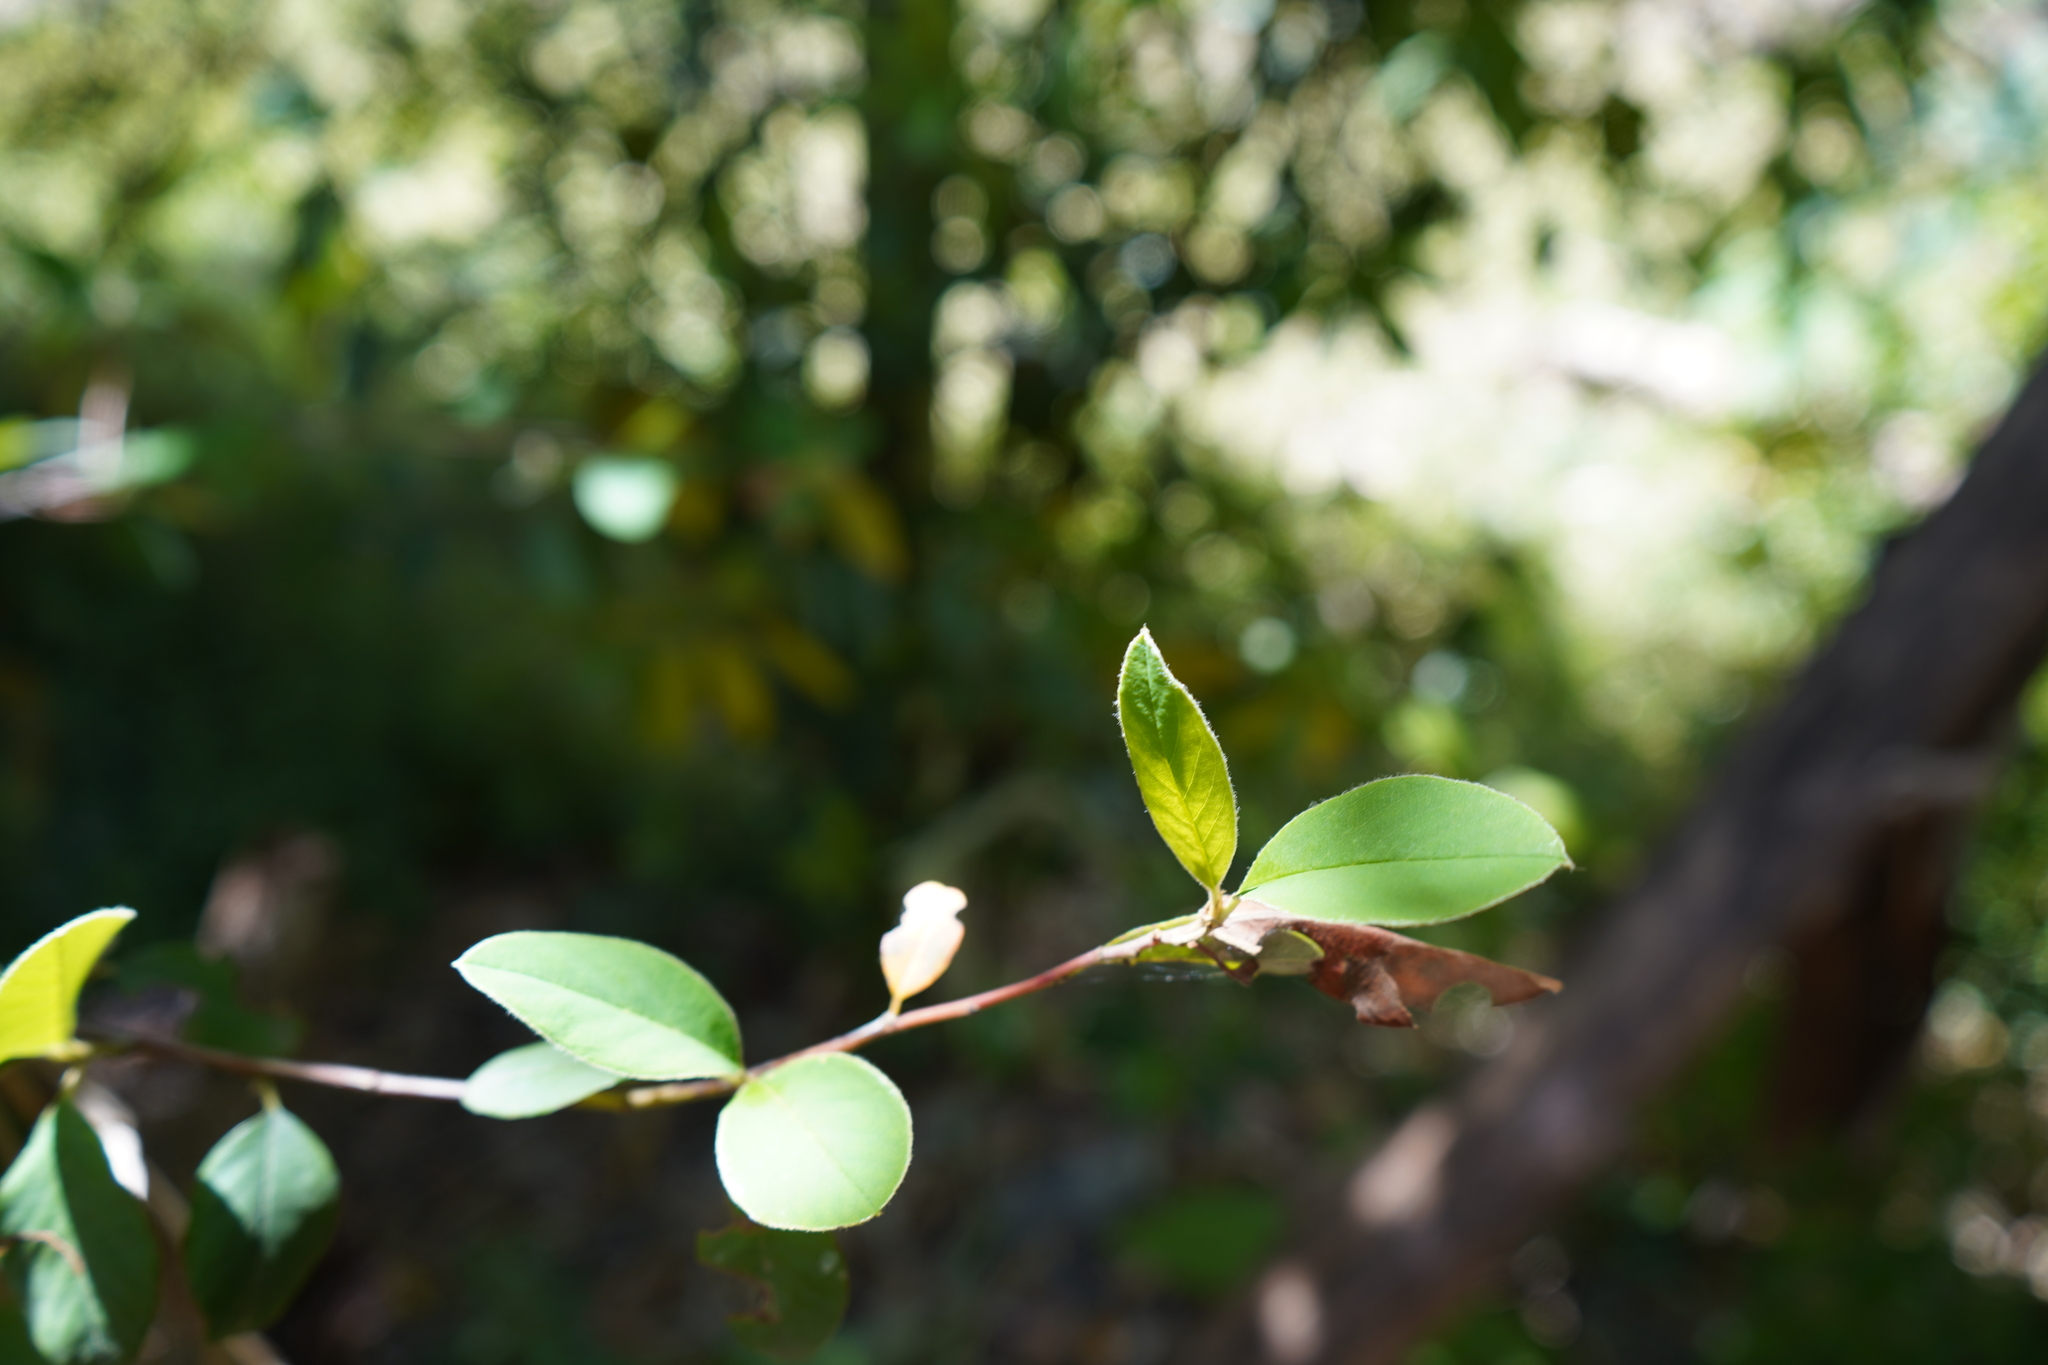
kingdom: Plantae
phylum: Tracheophyta
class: Magnoliopsida
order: Dipsacales
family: Caprifoliaceae
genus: Lonicera
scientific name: Lonicera japonica
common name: Japanese honeysuckle
